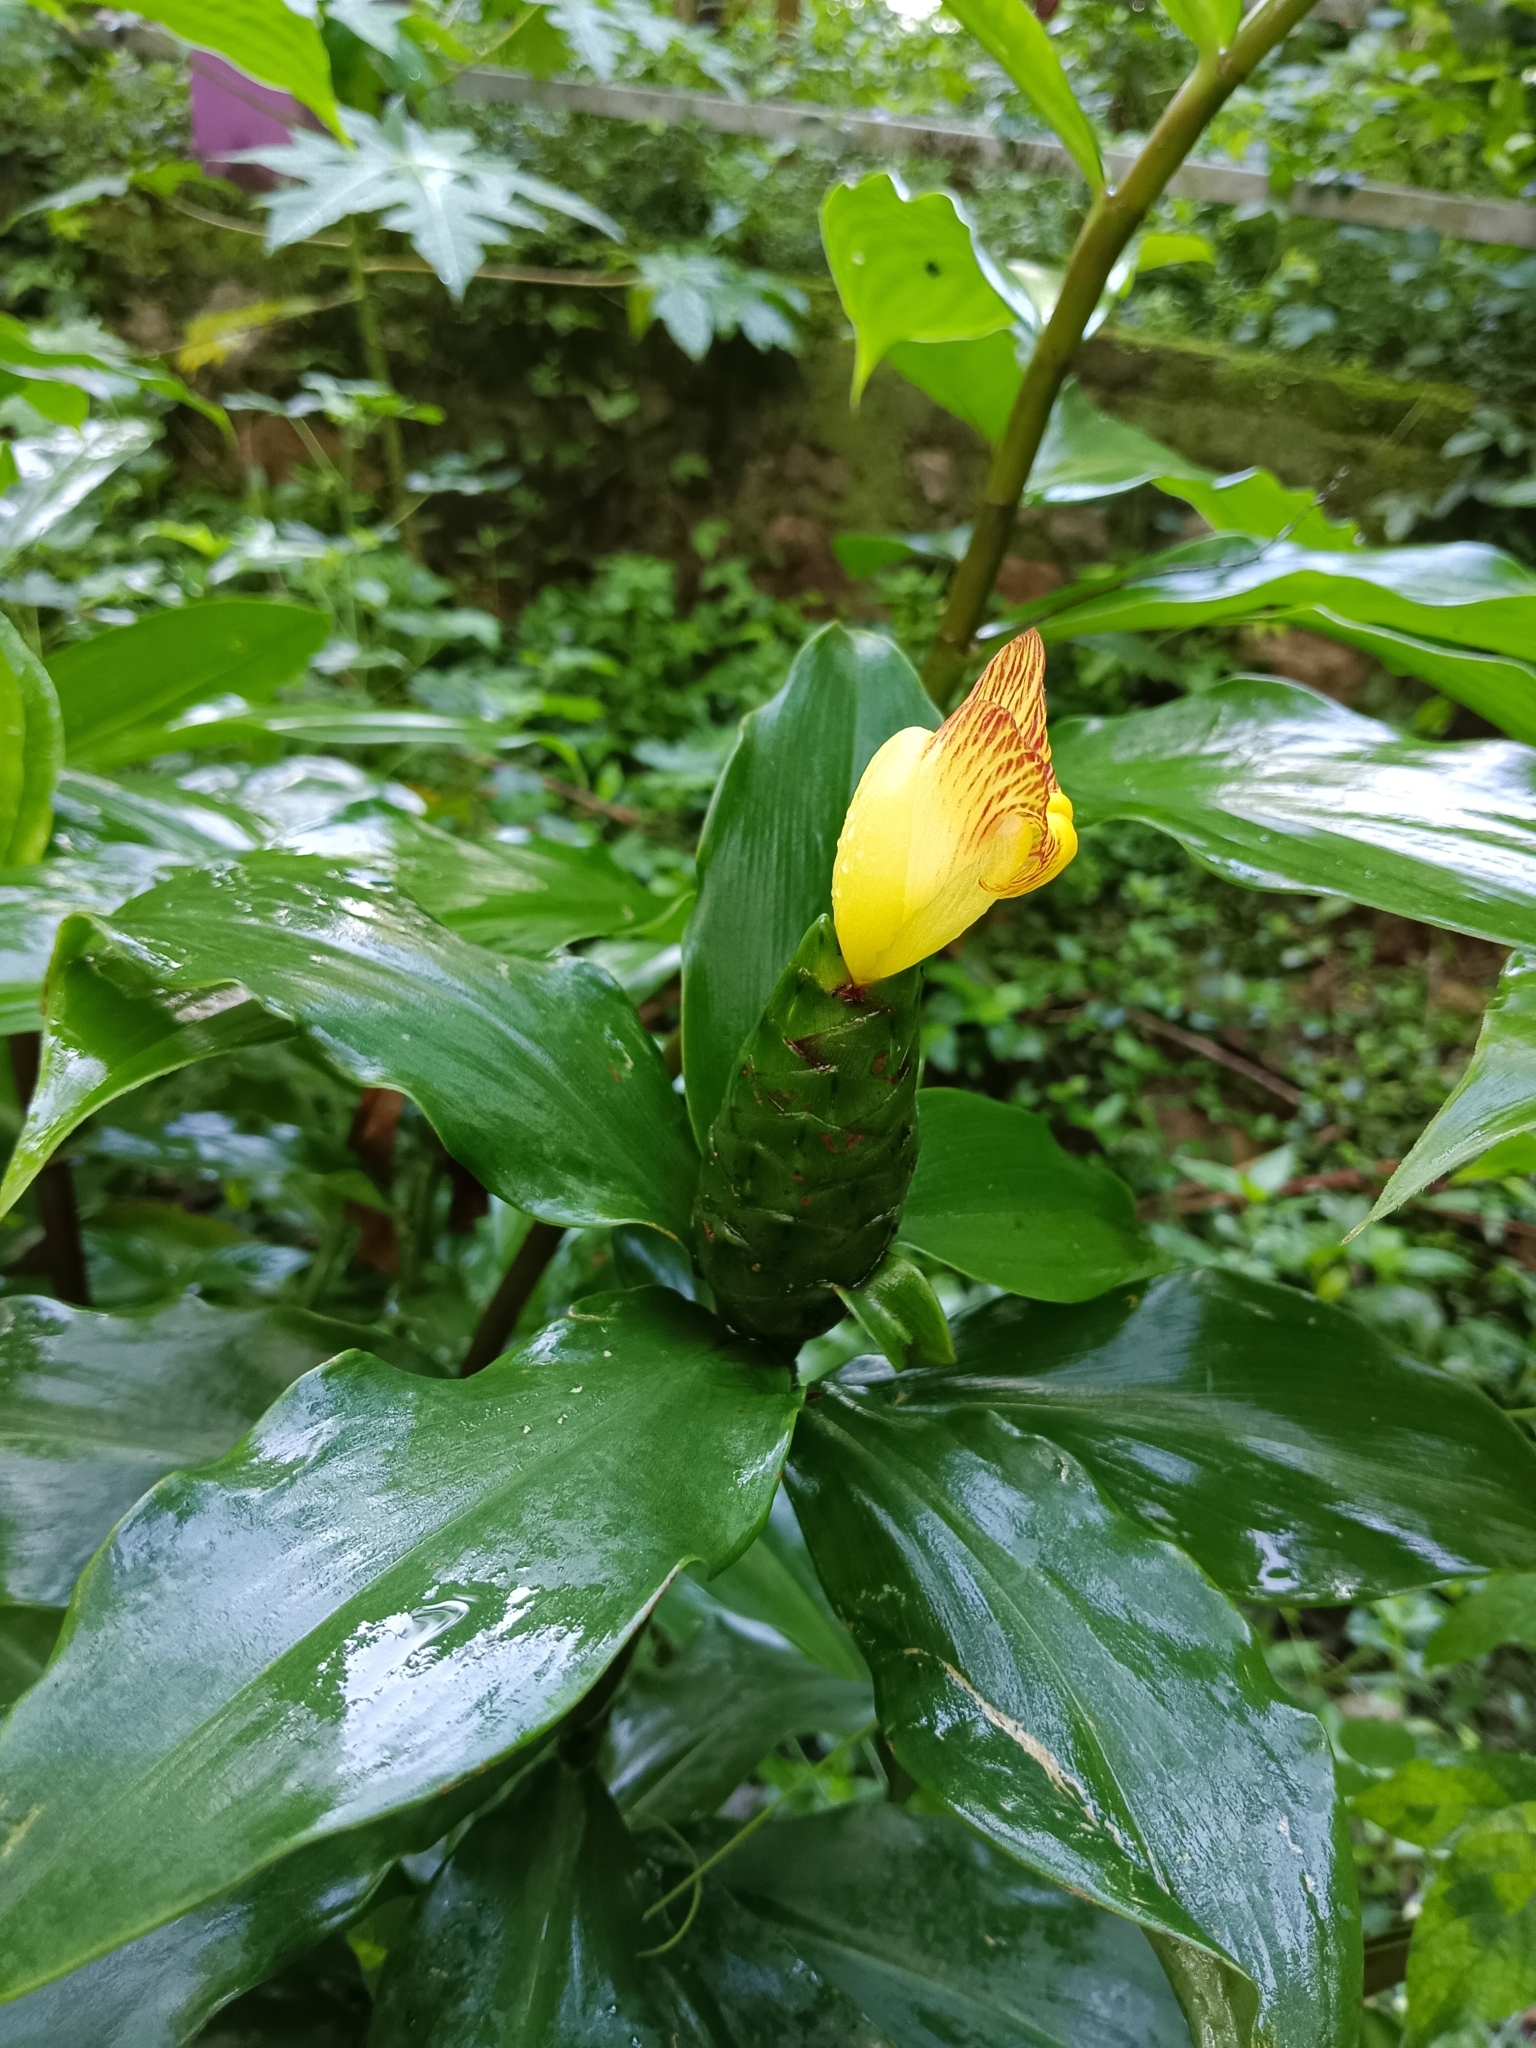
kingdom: Plantae
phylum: Tracheophyta
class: Liliopsida
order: Zingiberales
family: Costaceae
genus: Costus
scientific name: Costus pictus
